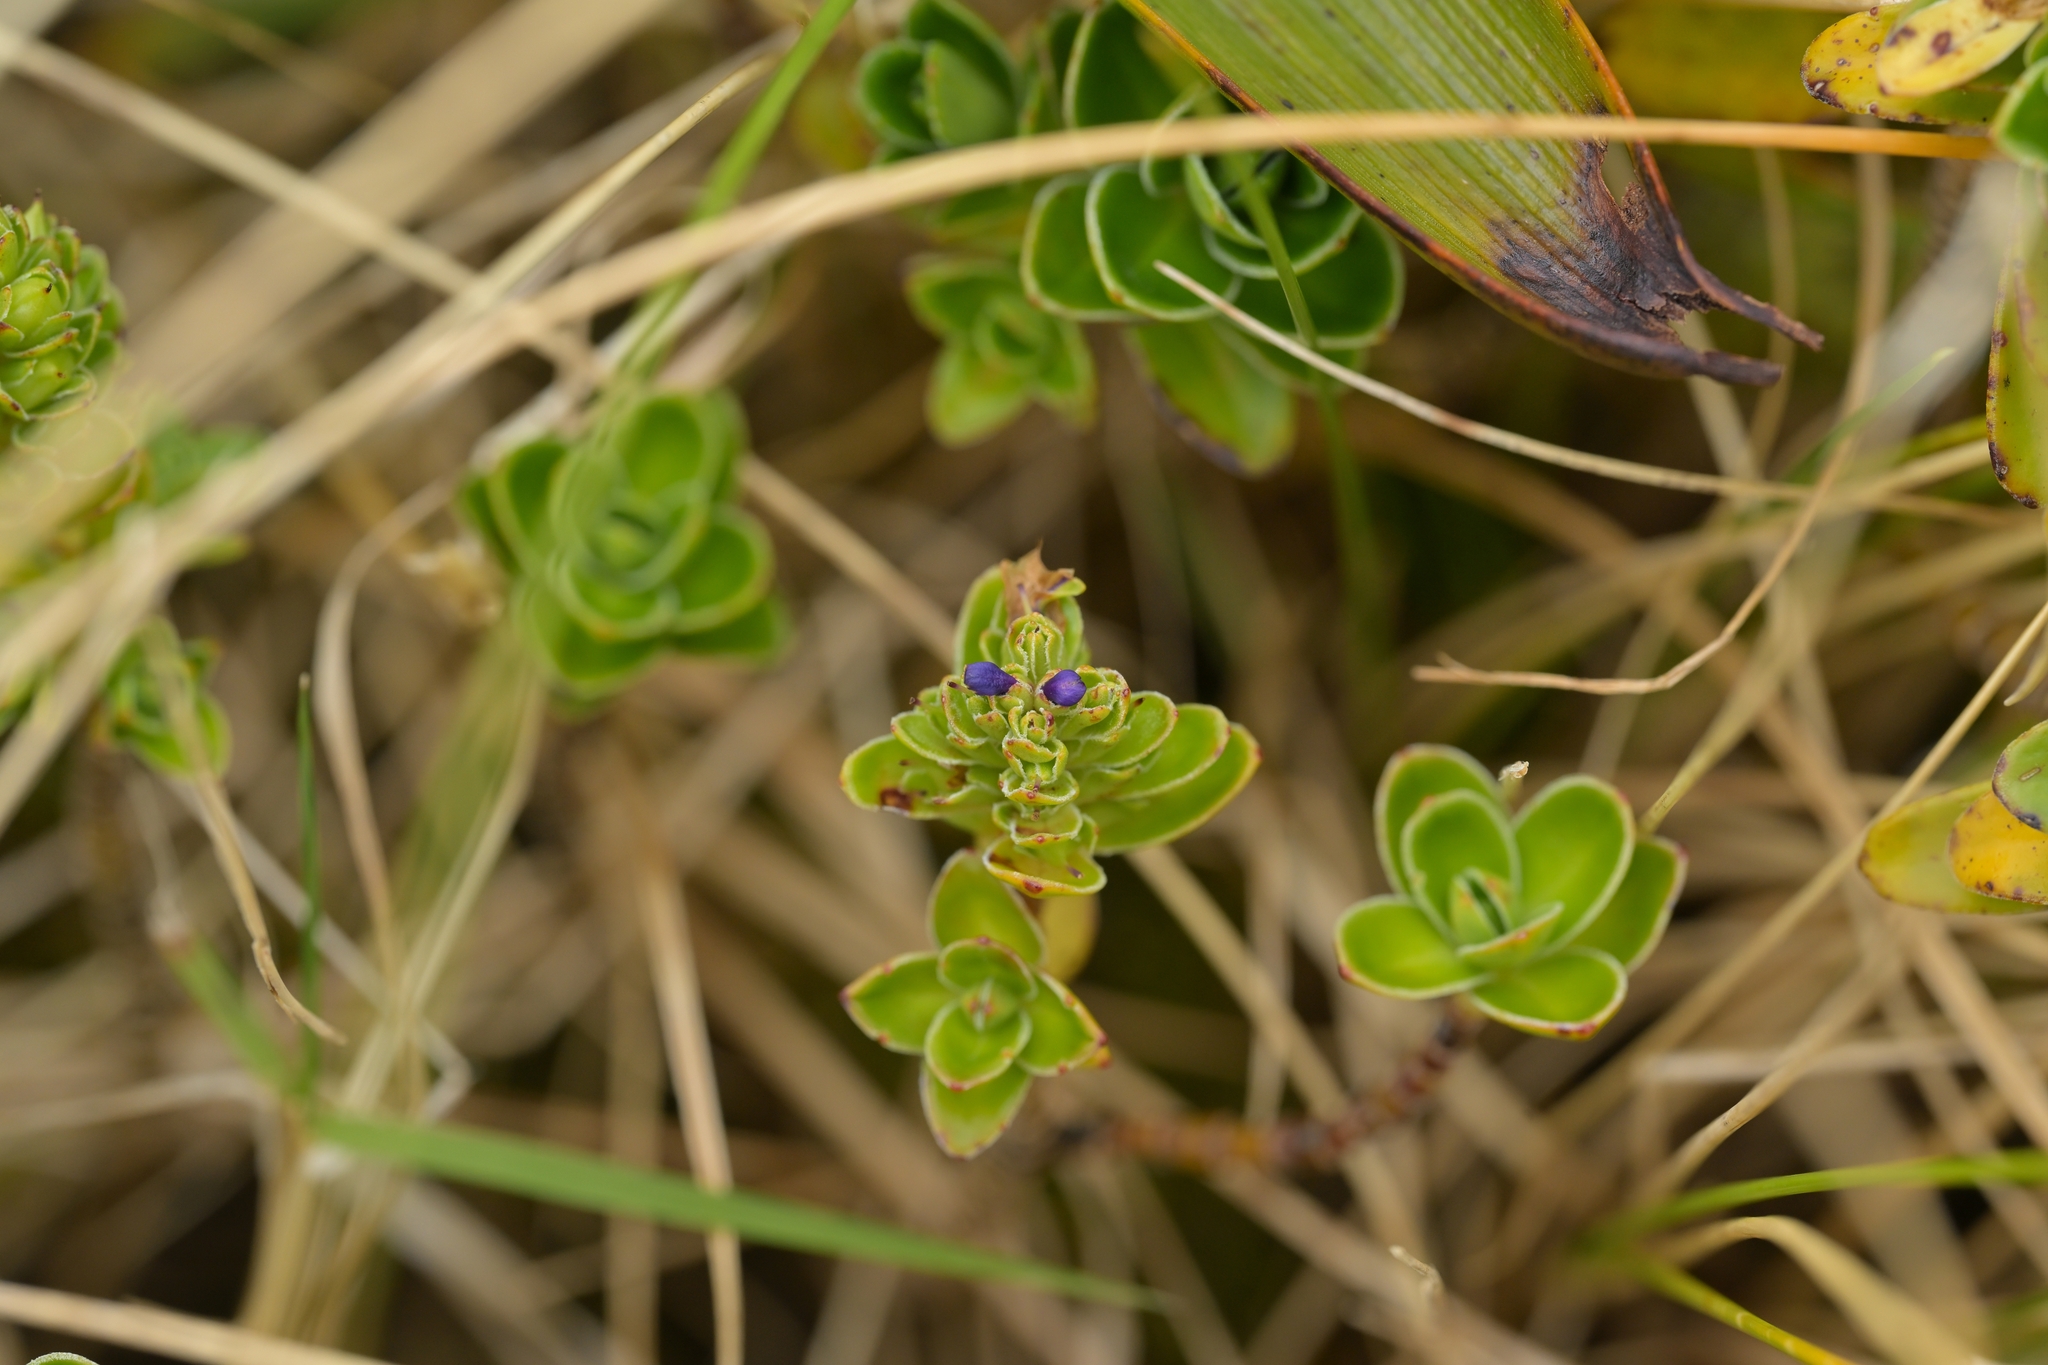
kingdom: Plantae
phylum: Tracheophyta
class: Magnoliopsida
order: Lamiales
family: Plantaginaceae
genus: Veronica
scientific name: Veronica benthamii
